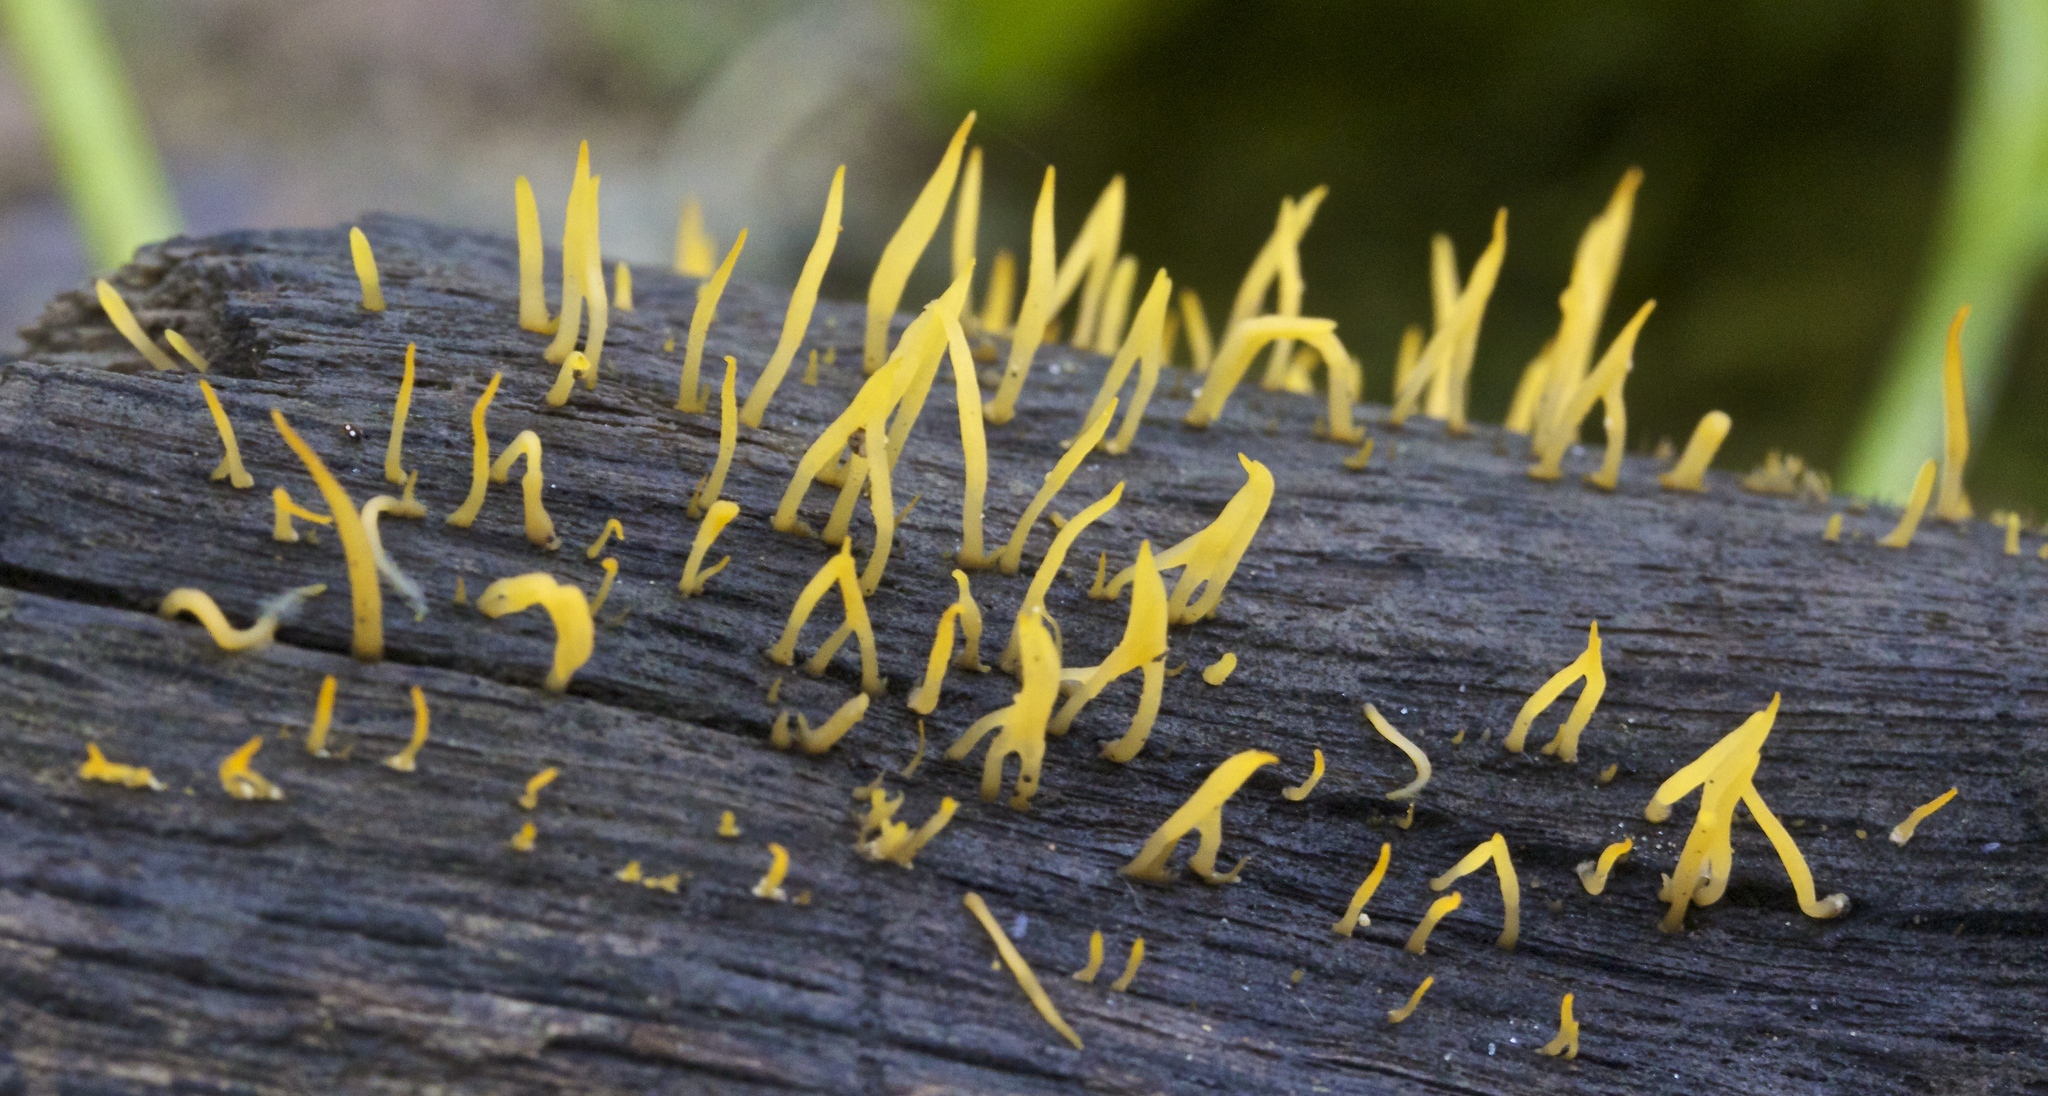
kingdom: Fungi
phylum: Basidiomycota
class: Dacrymycetes
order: Dacrymycetales
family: Dacrymycetaceae
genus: Calocera
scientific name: Calocera cornea
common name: Small stagshorn
